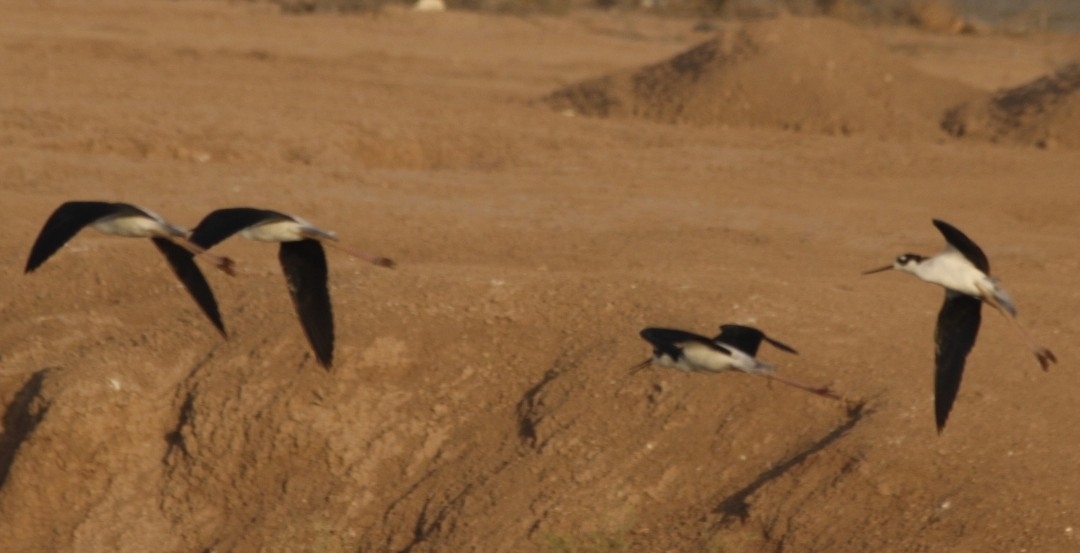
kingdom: Animalia
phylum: Chordata
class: Aves
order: Charadriiformes
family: Recurvirostridae
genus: Himantopus
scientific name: Himantopus mexicanus
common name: Black-necked stilt
